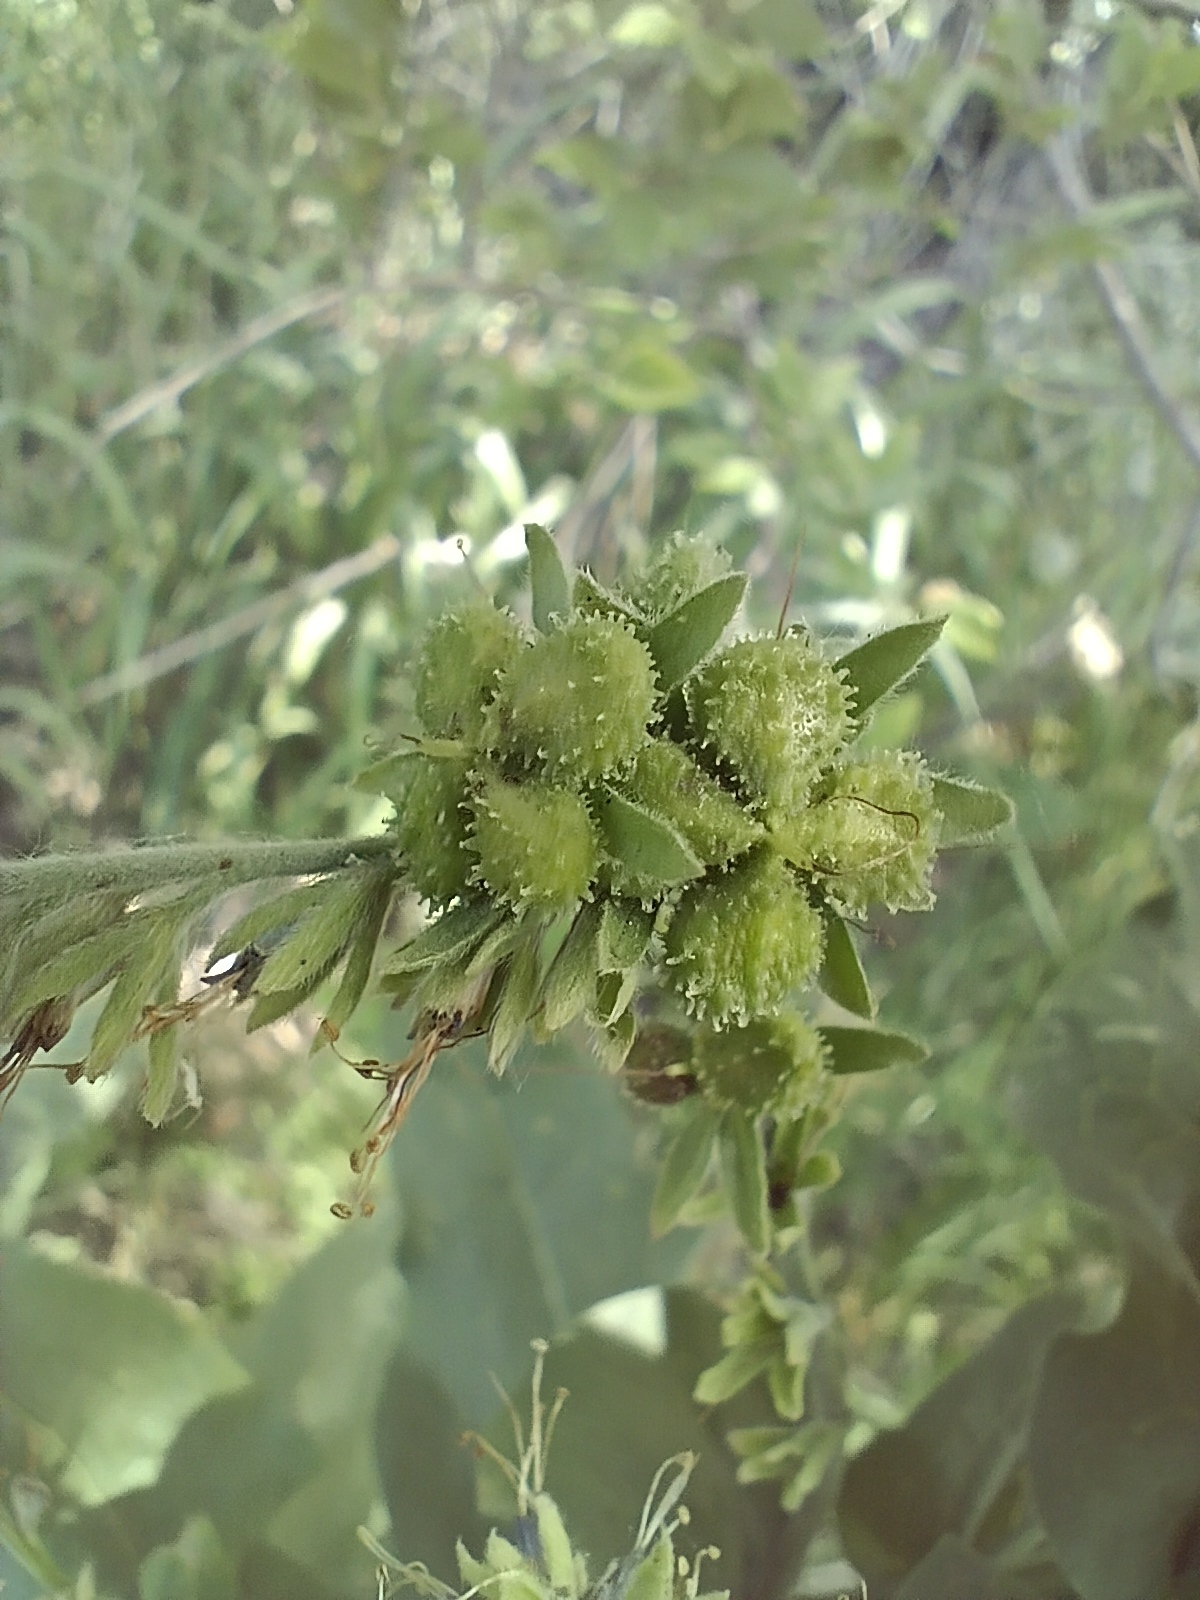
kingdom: Plantae
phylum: Tracheophyta
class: Magnoliopsida
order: Boraginales
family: Boraginaceae
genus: Solenanthus
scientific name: Solenanthus circinnatus
